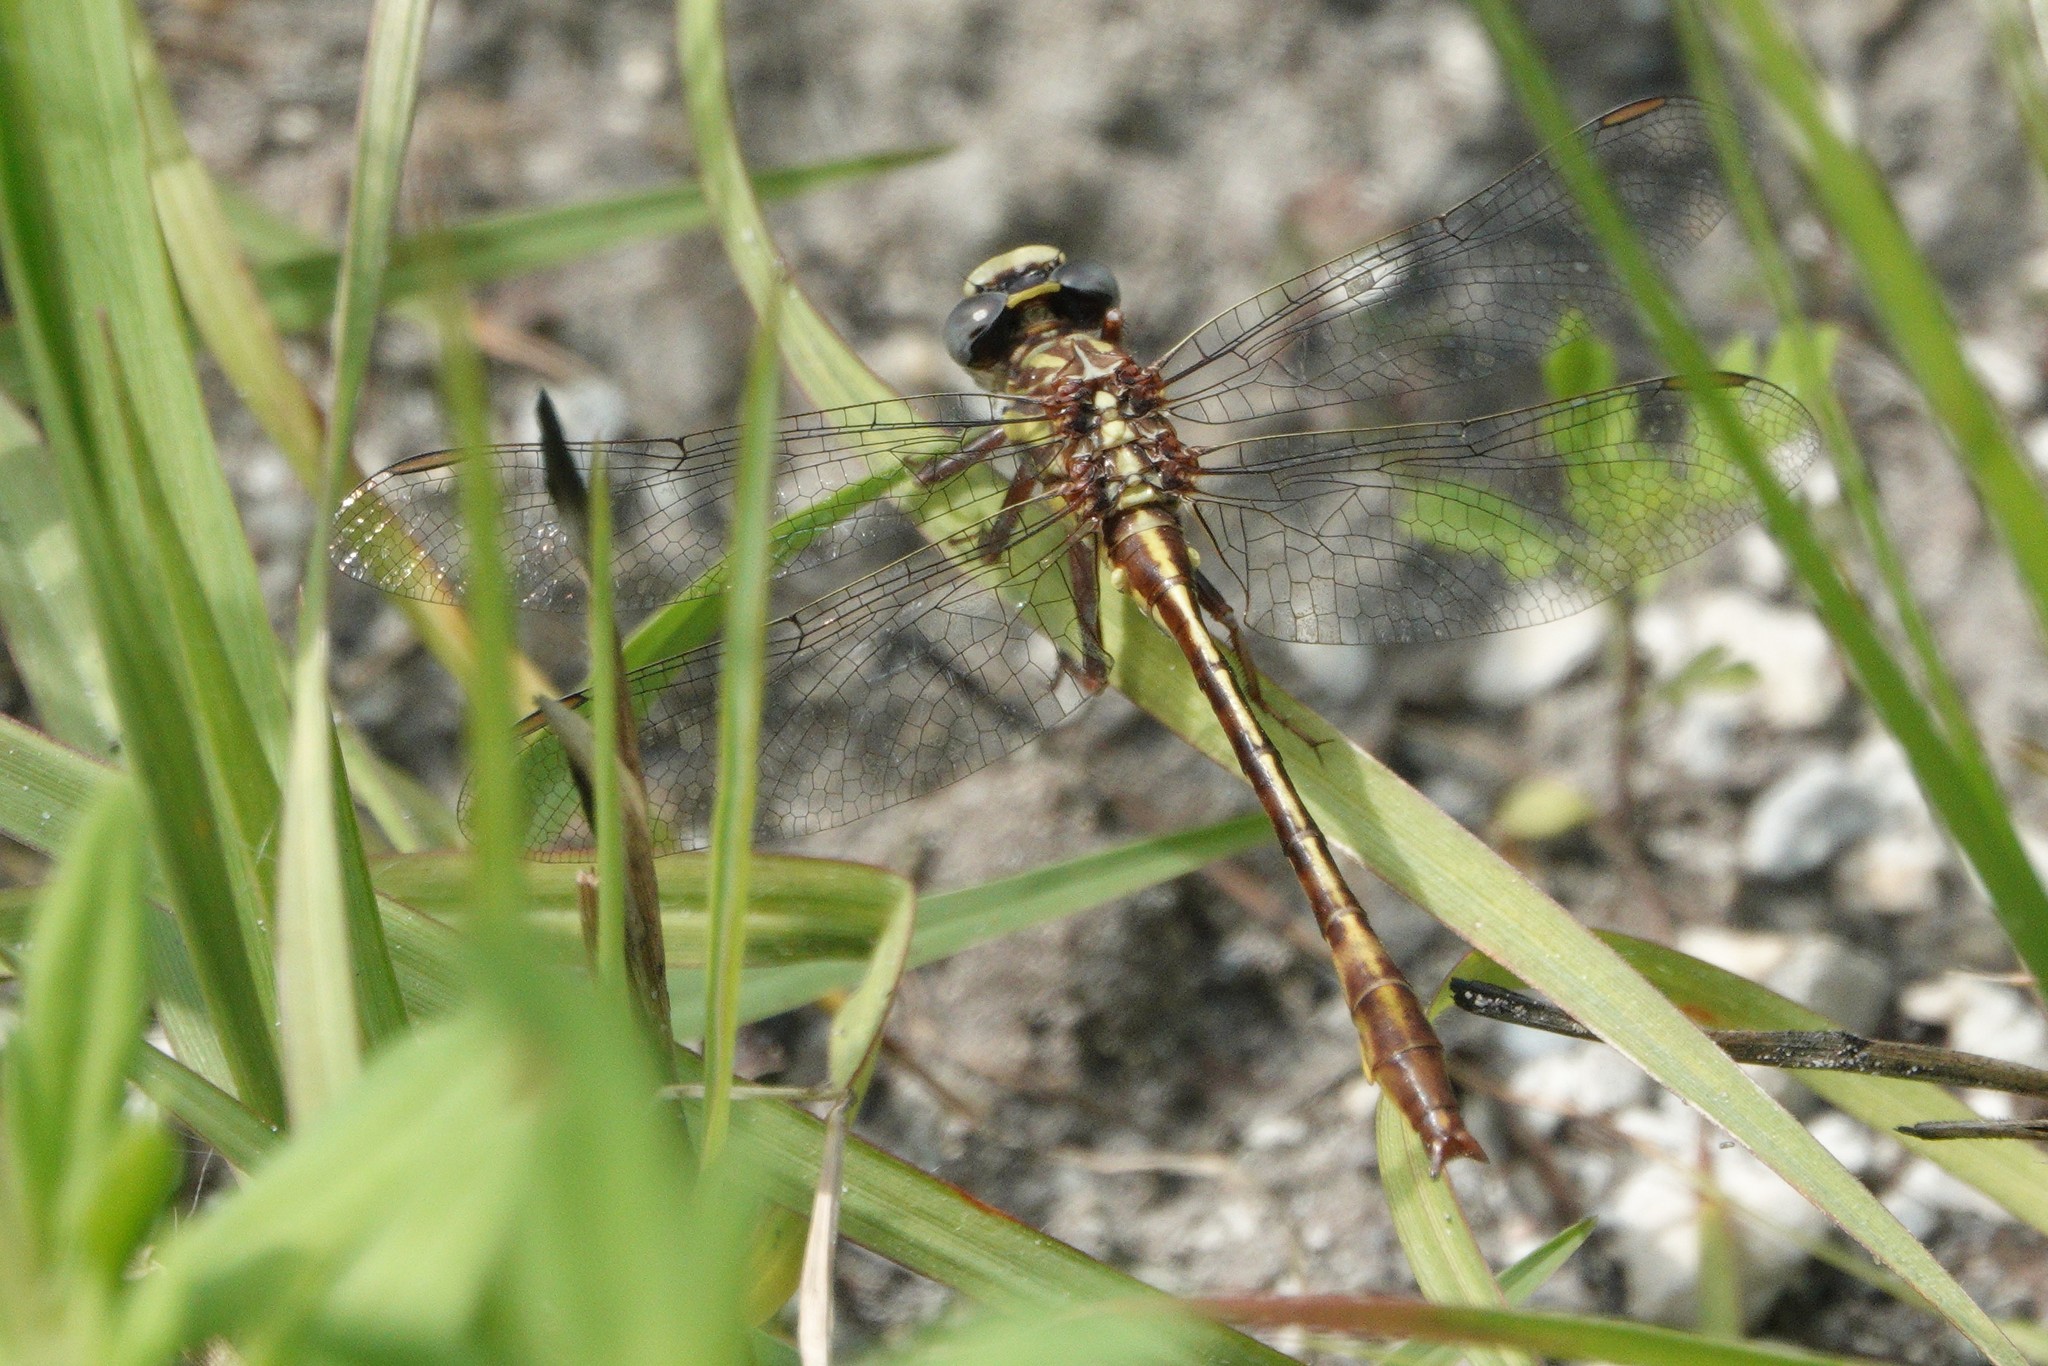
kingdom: Animalia
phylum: Arthropoda
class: Insecta
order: Odonata
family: Gomphidae
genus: Phanogomphus
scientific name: Phanogomphus minutus
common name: Cypress clubtail
